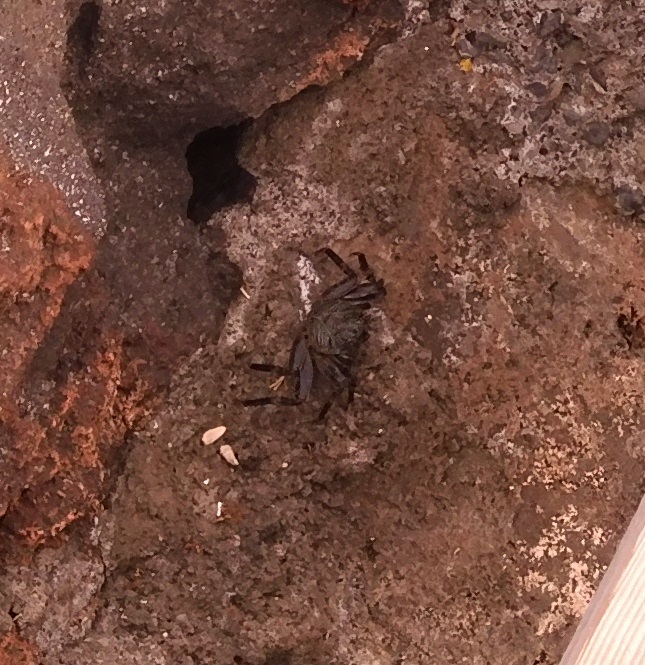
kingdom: Animalia
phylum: Arthropoda
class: Malacostraca
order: Decapoda
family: Grapsidae
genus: Grapsus
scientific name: Grapsus tenuicrustatus
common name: Natal lightfoot crab
